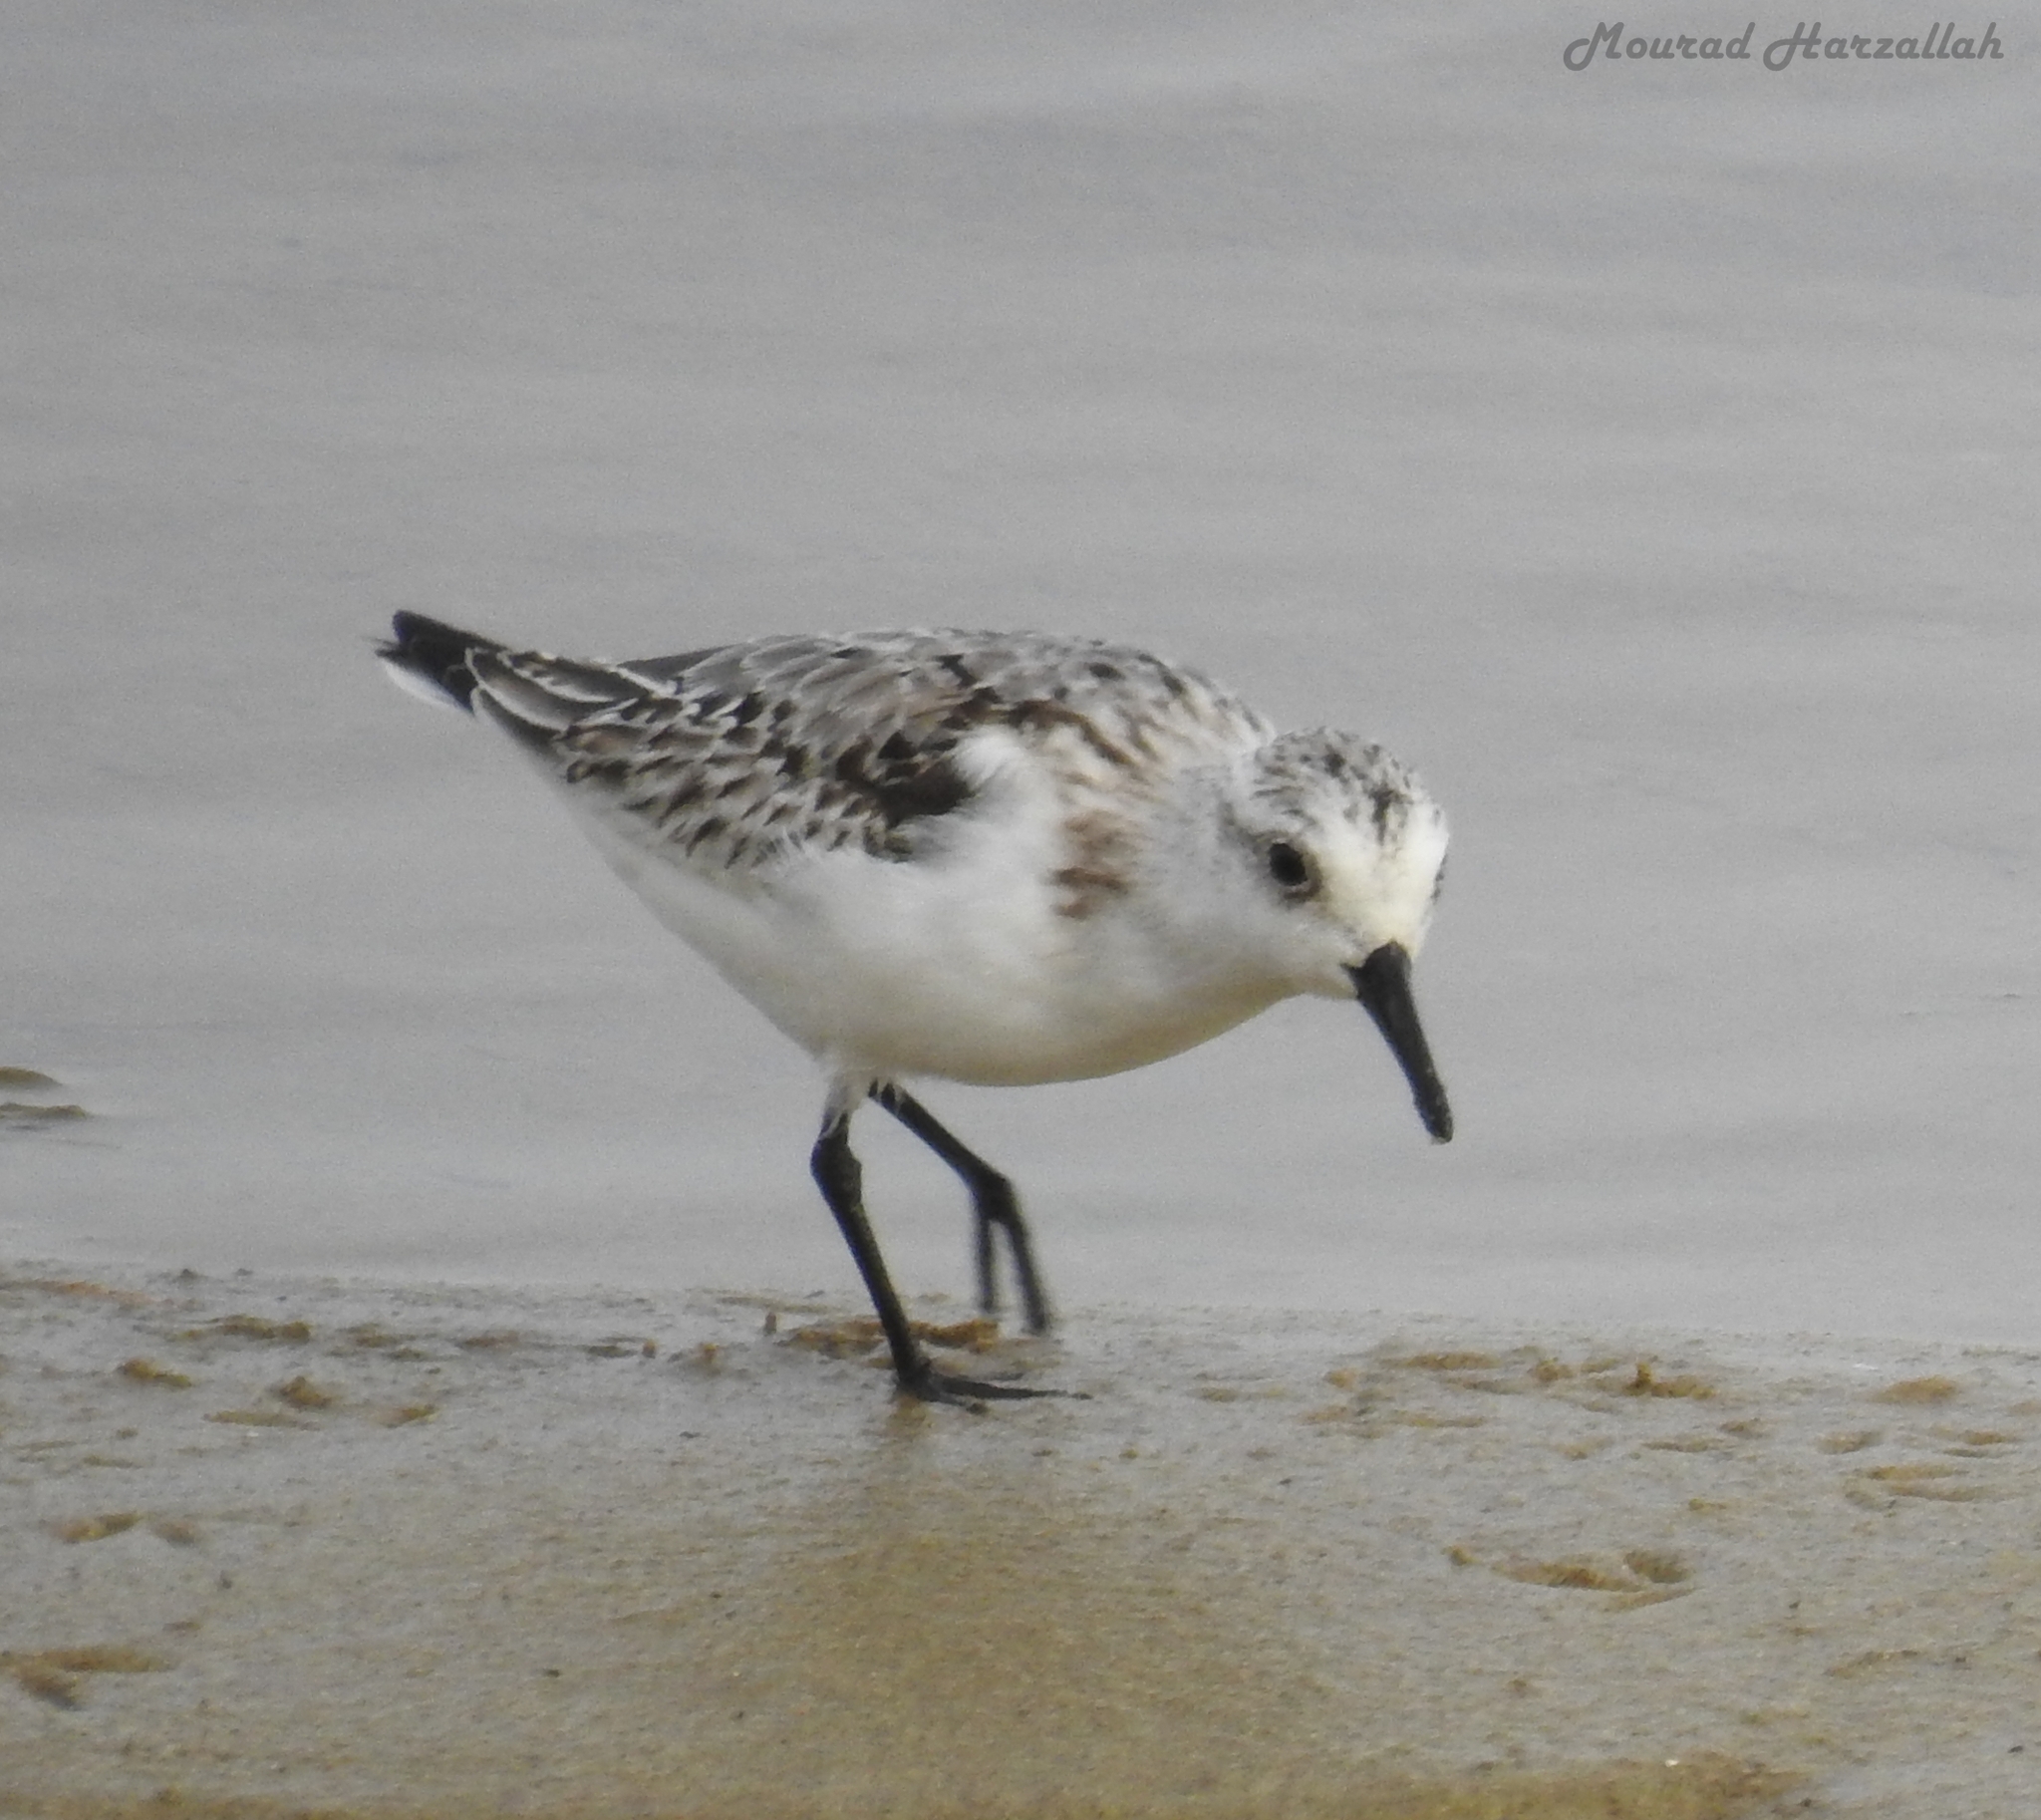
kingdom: Animalia
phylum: Chordata
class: Aves
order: Charadriiformes
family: Scolopacidae
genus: Calidris
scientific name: Calidris alba
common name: Sanderling
